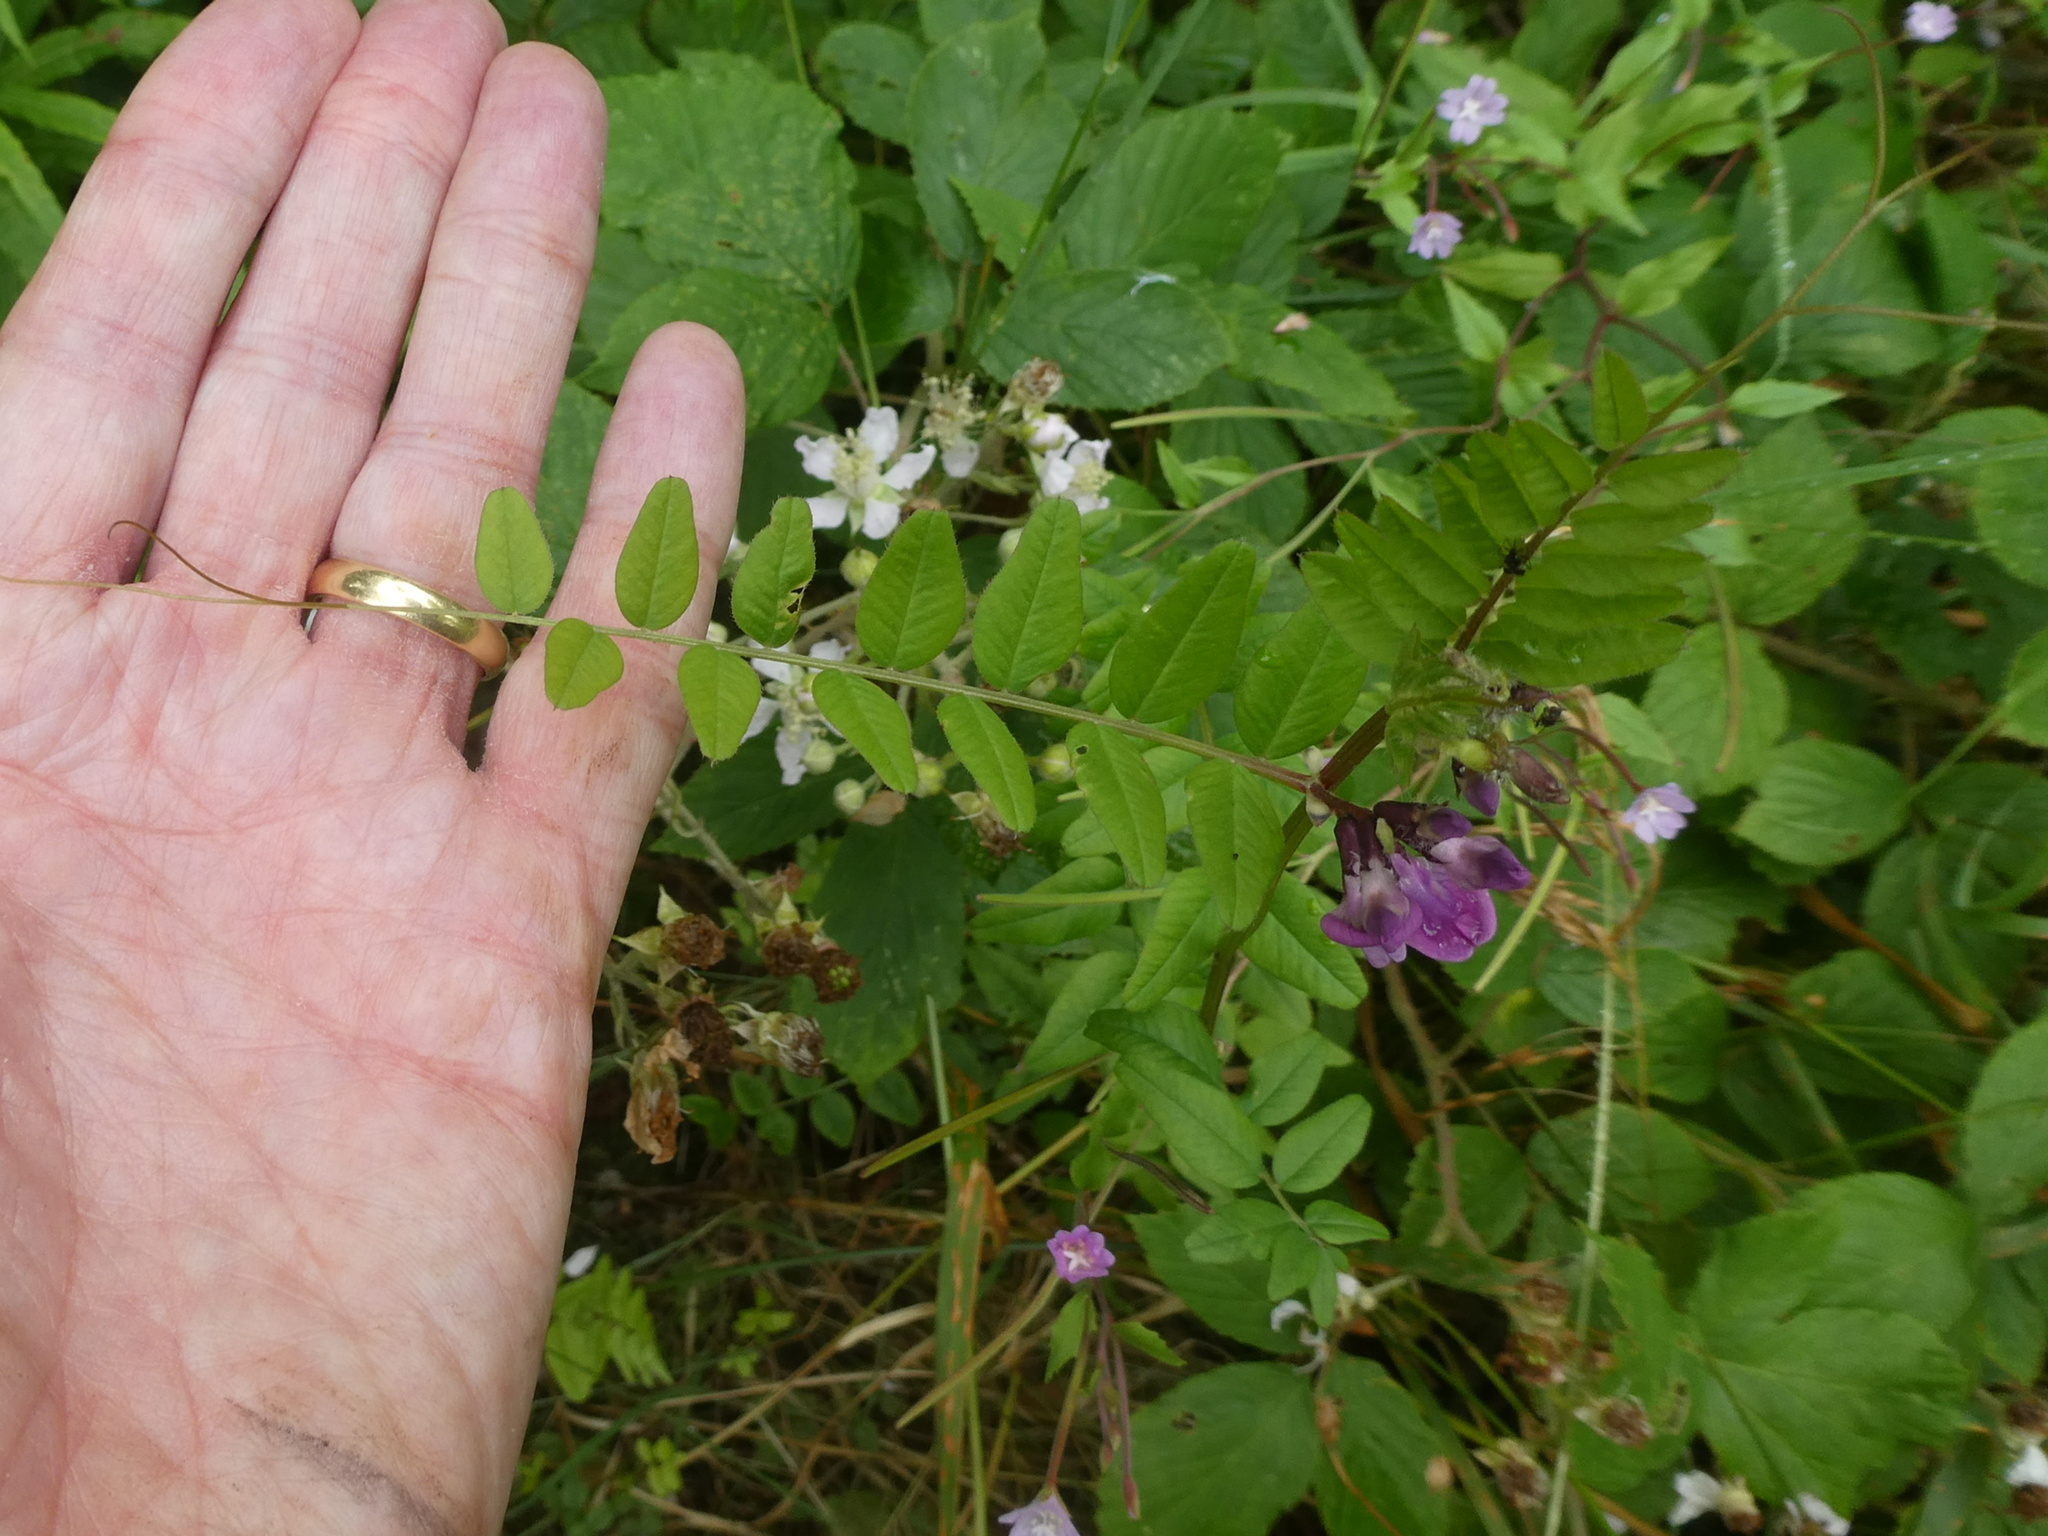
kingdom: Plantae
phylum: Tracheophyta
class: Magnoliopsida
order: Fabales
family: Fabaceae
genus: Vicia
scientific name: Vicia sepium
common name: Bush vetch
